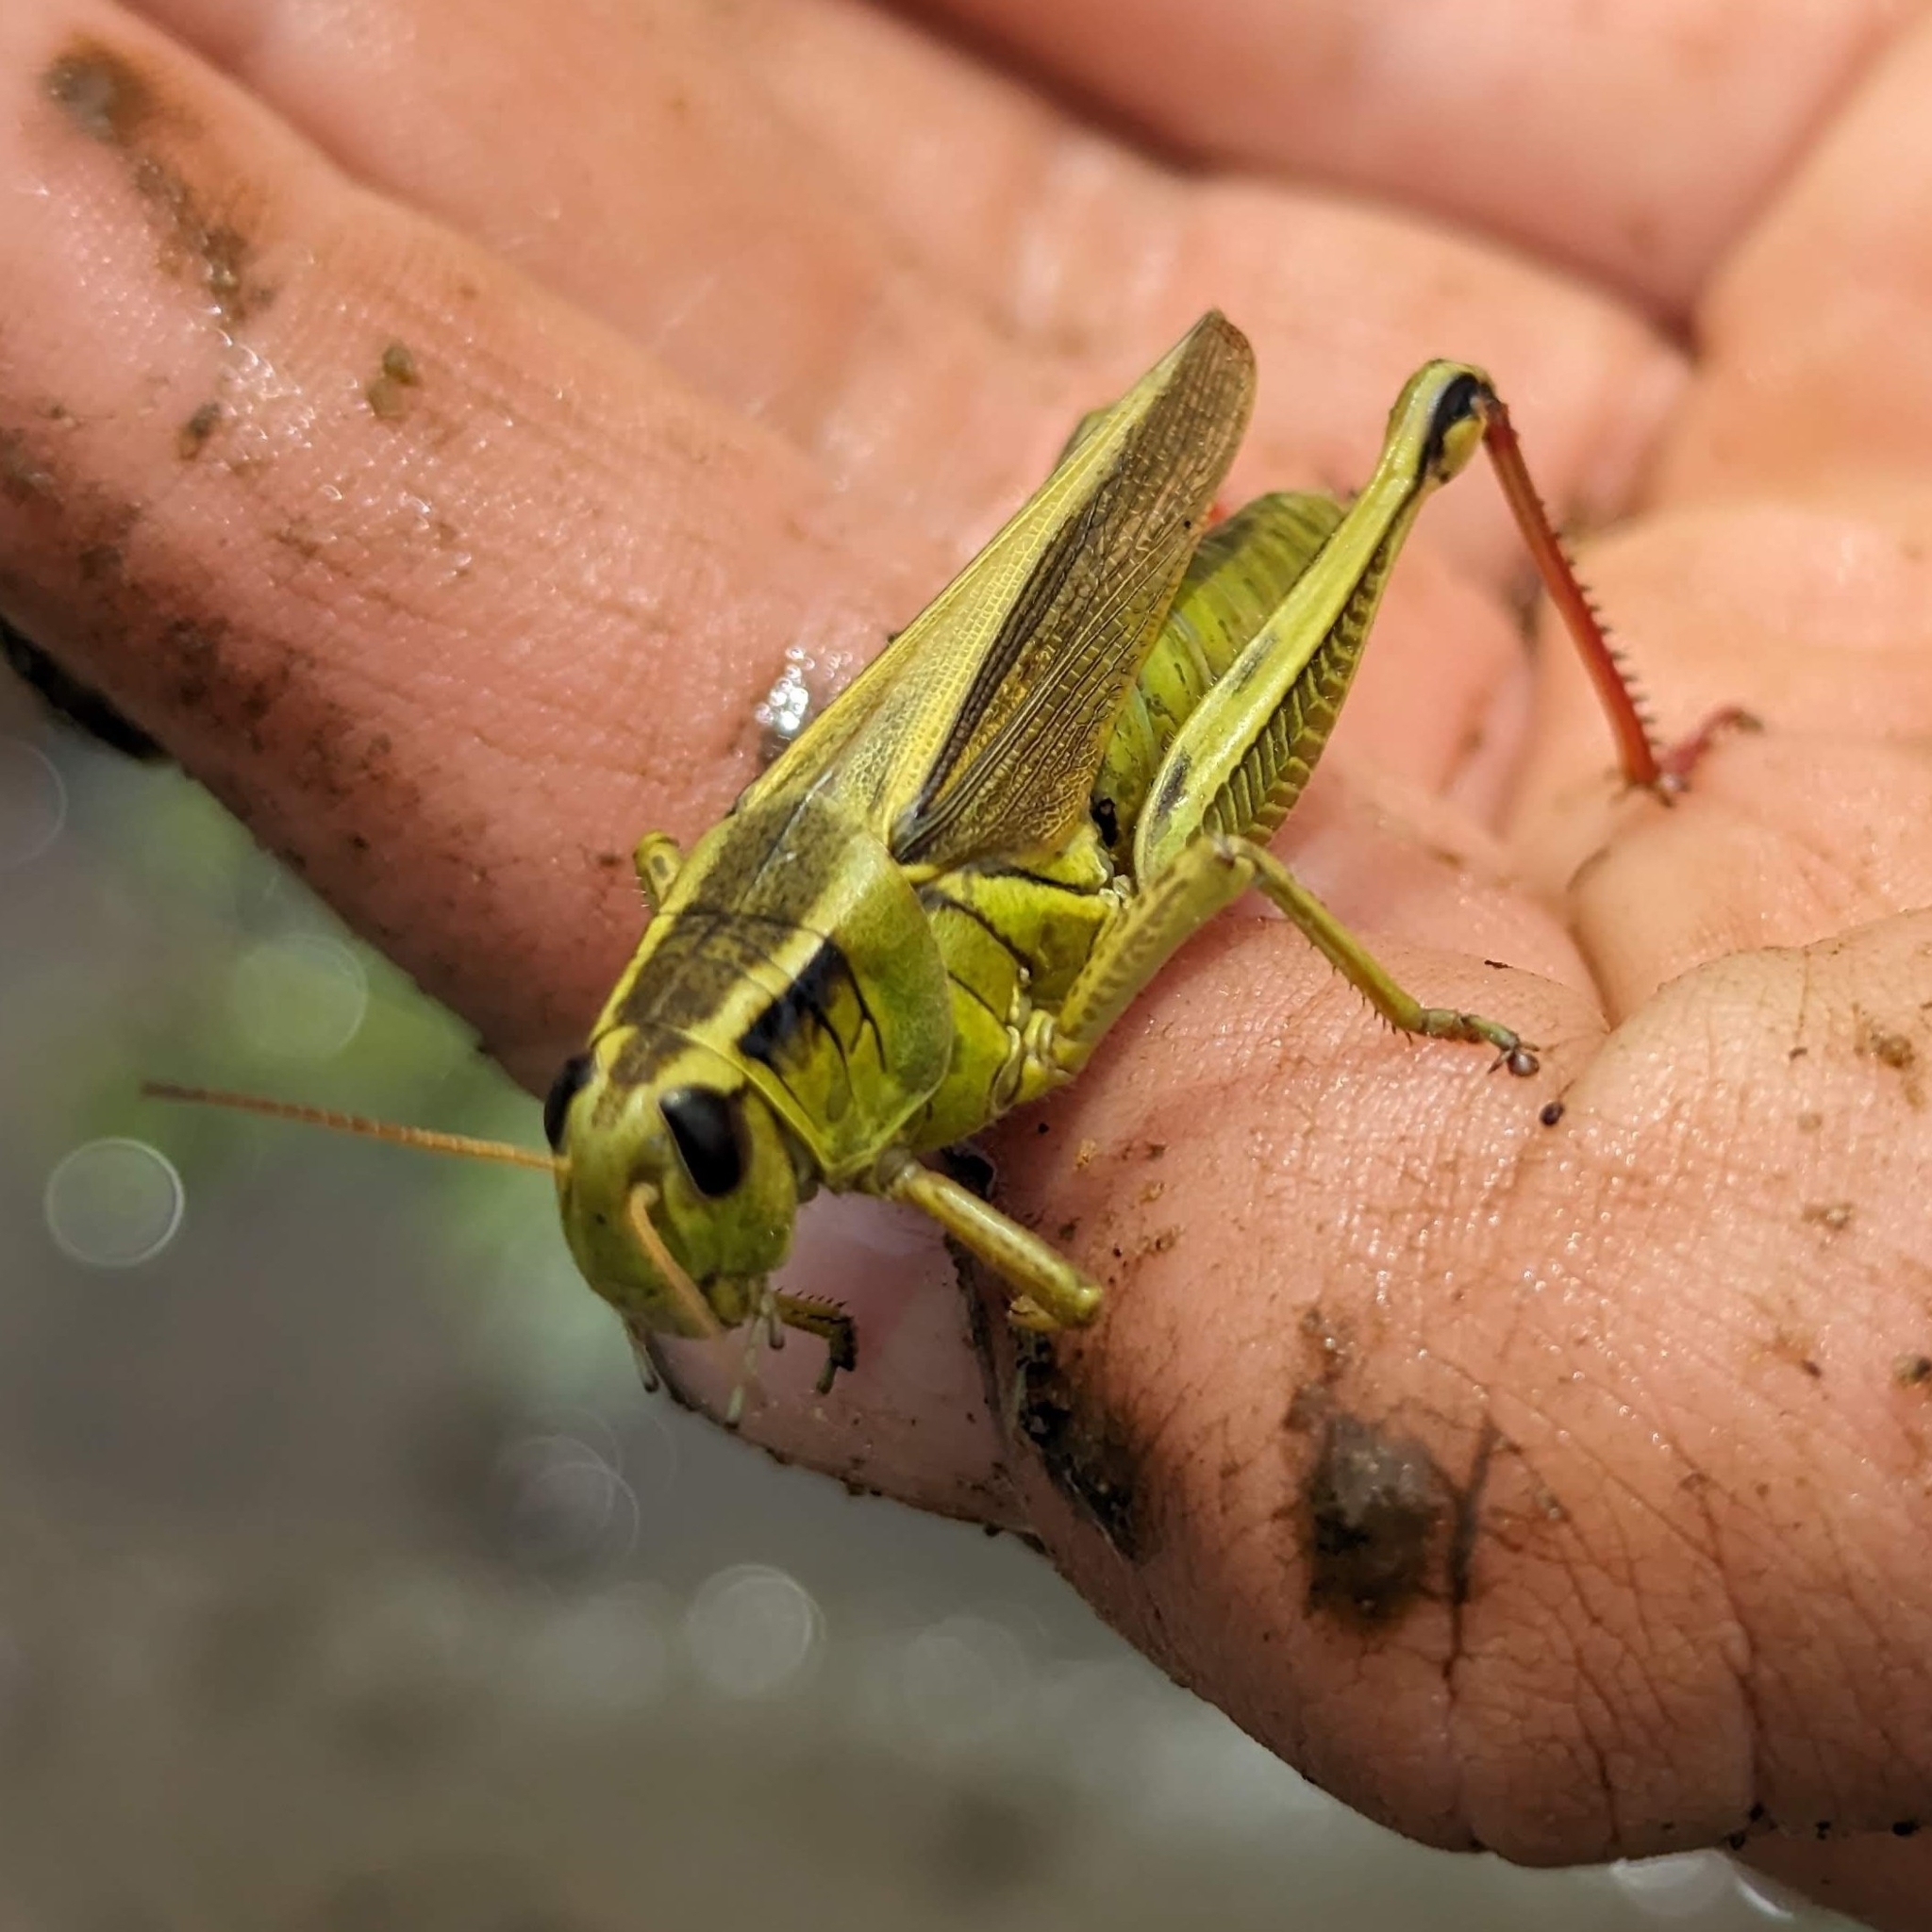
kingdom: Animalia
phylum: Arthropoda
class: Insecta
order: Orthoptera
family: Acrididae
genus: Melanoplus
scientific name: Melanoplus bivittatus
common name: Two-striped grasshopper
